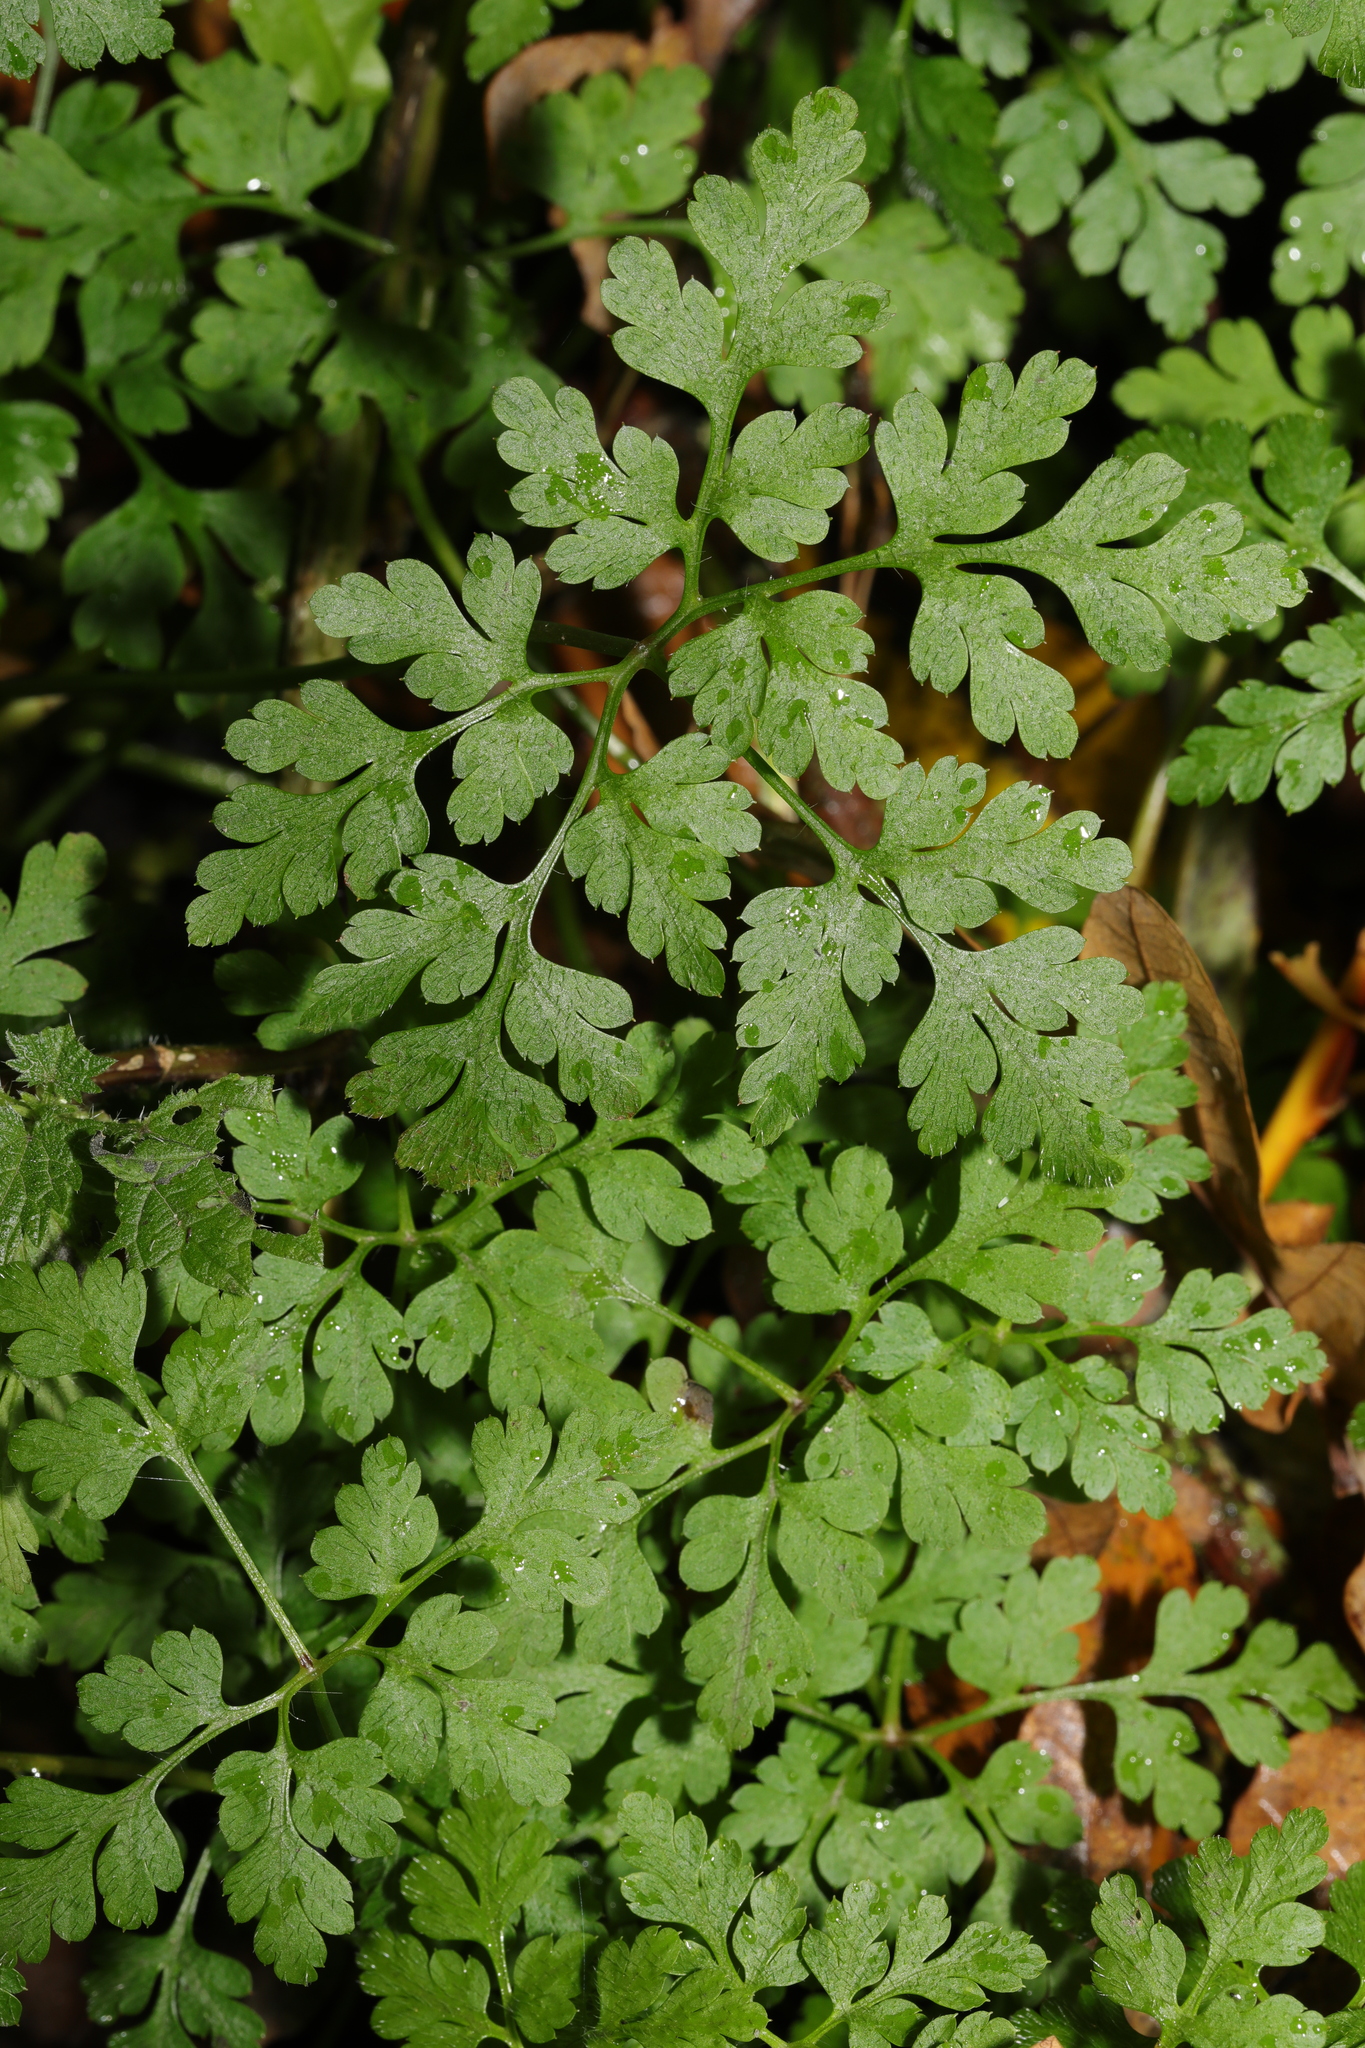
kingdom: Plantae
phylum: Tracheophyta
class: Magnoliopsida
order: Geraniales
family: Geraniaceae
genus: Geranium
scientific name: Geranium robertianum
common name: Herb-robert
